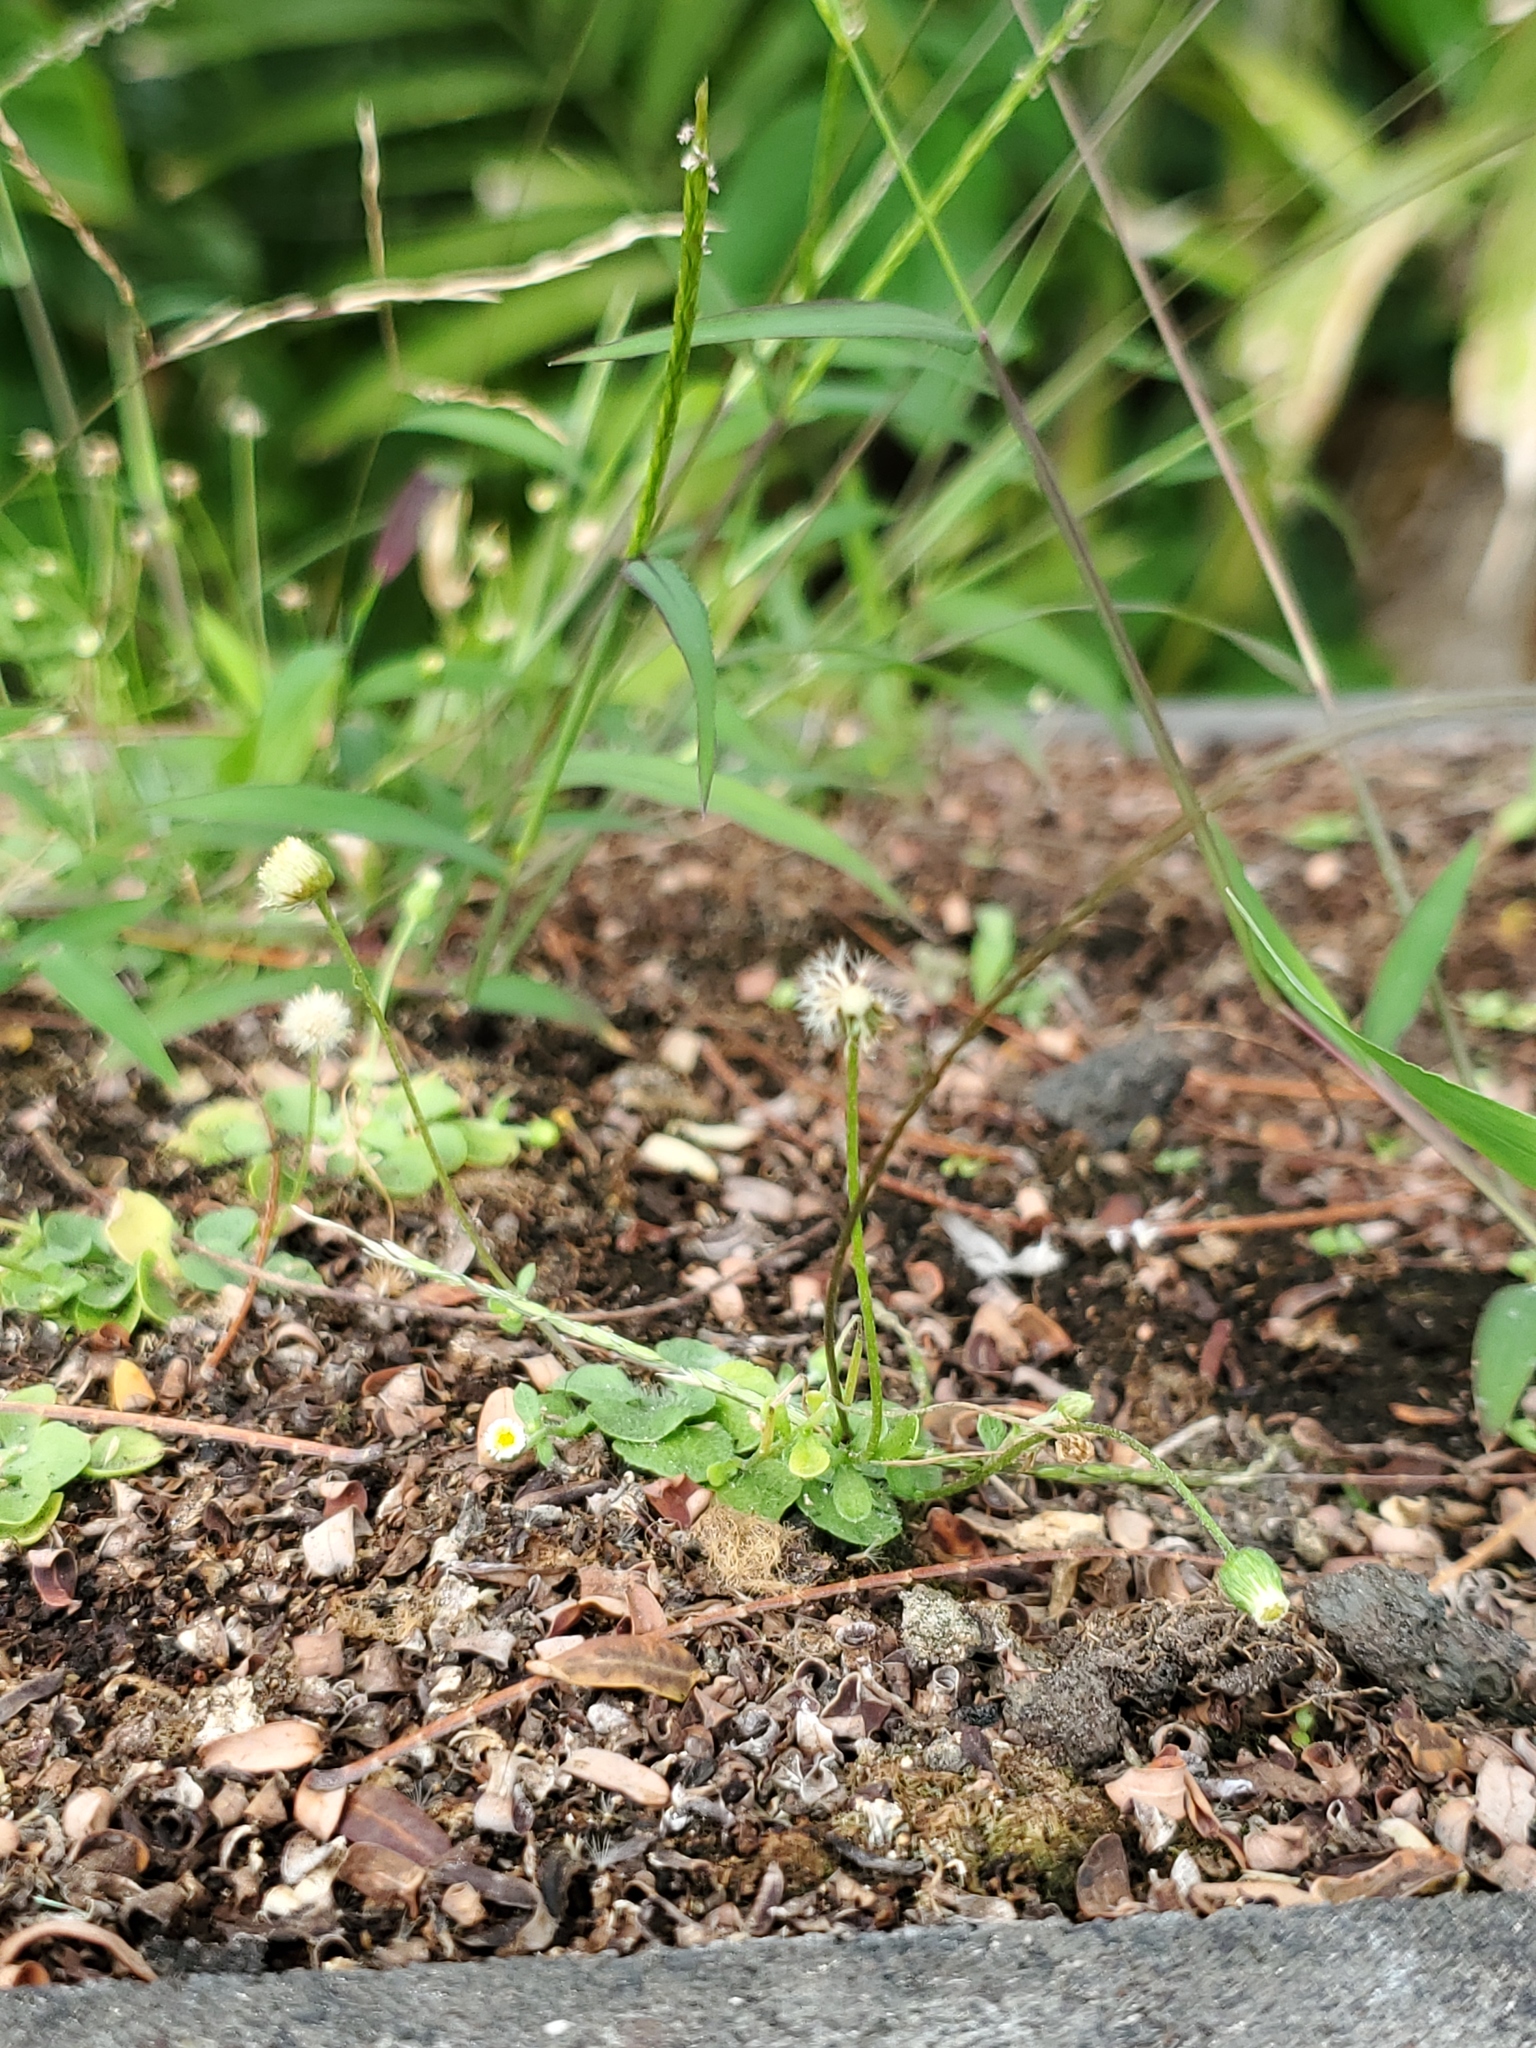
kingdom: Plantae
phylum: Tracheophyta
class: Magnoliopsida
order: Asterales
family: Asteraceae
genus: Erigeron
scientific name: Erigeron bellioides
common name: Bellorita
